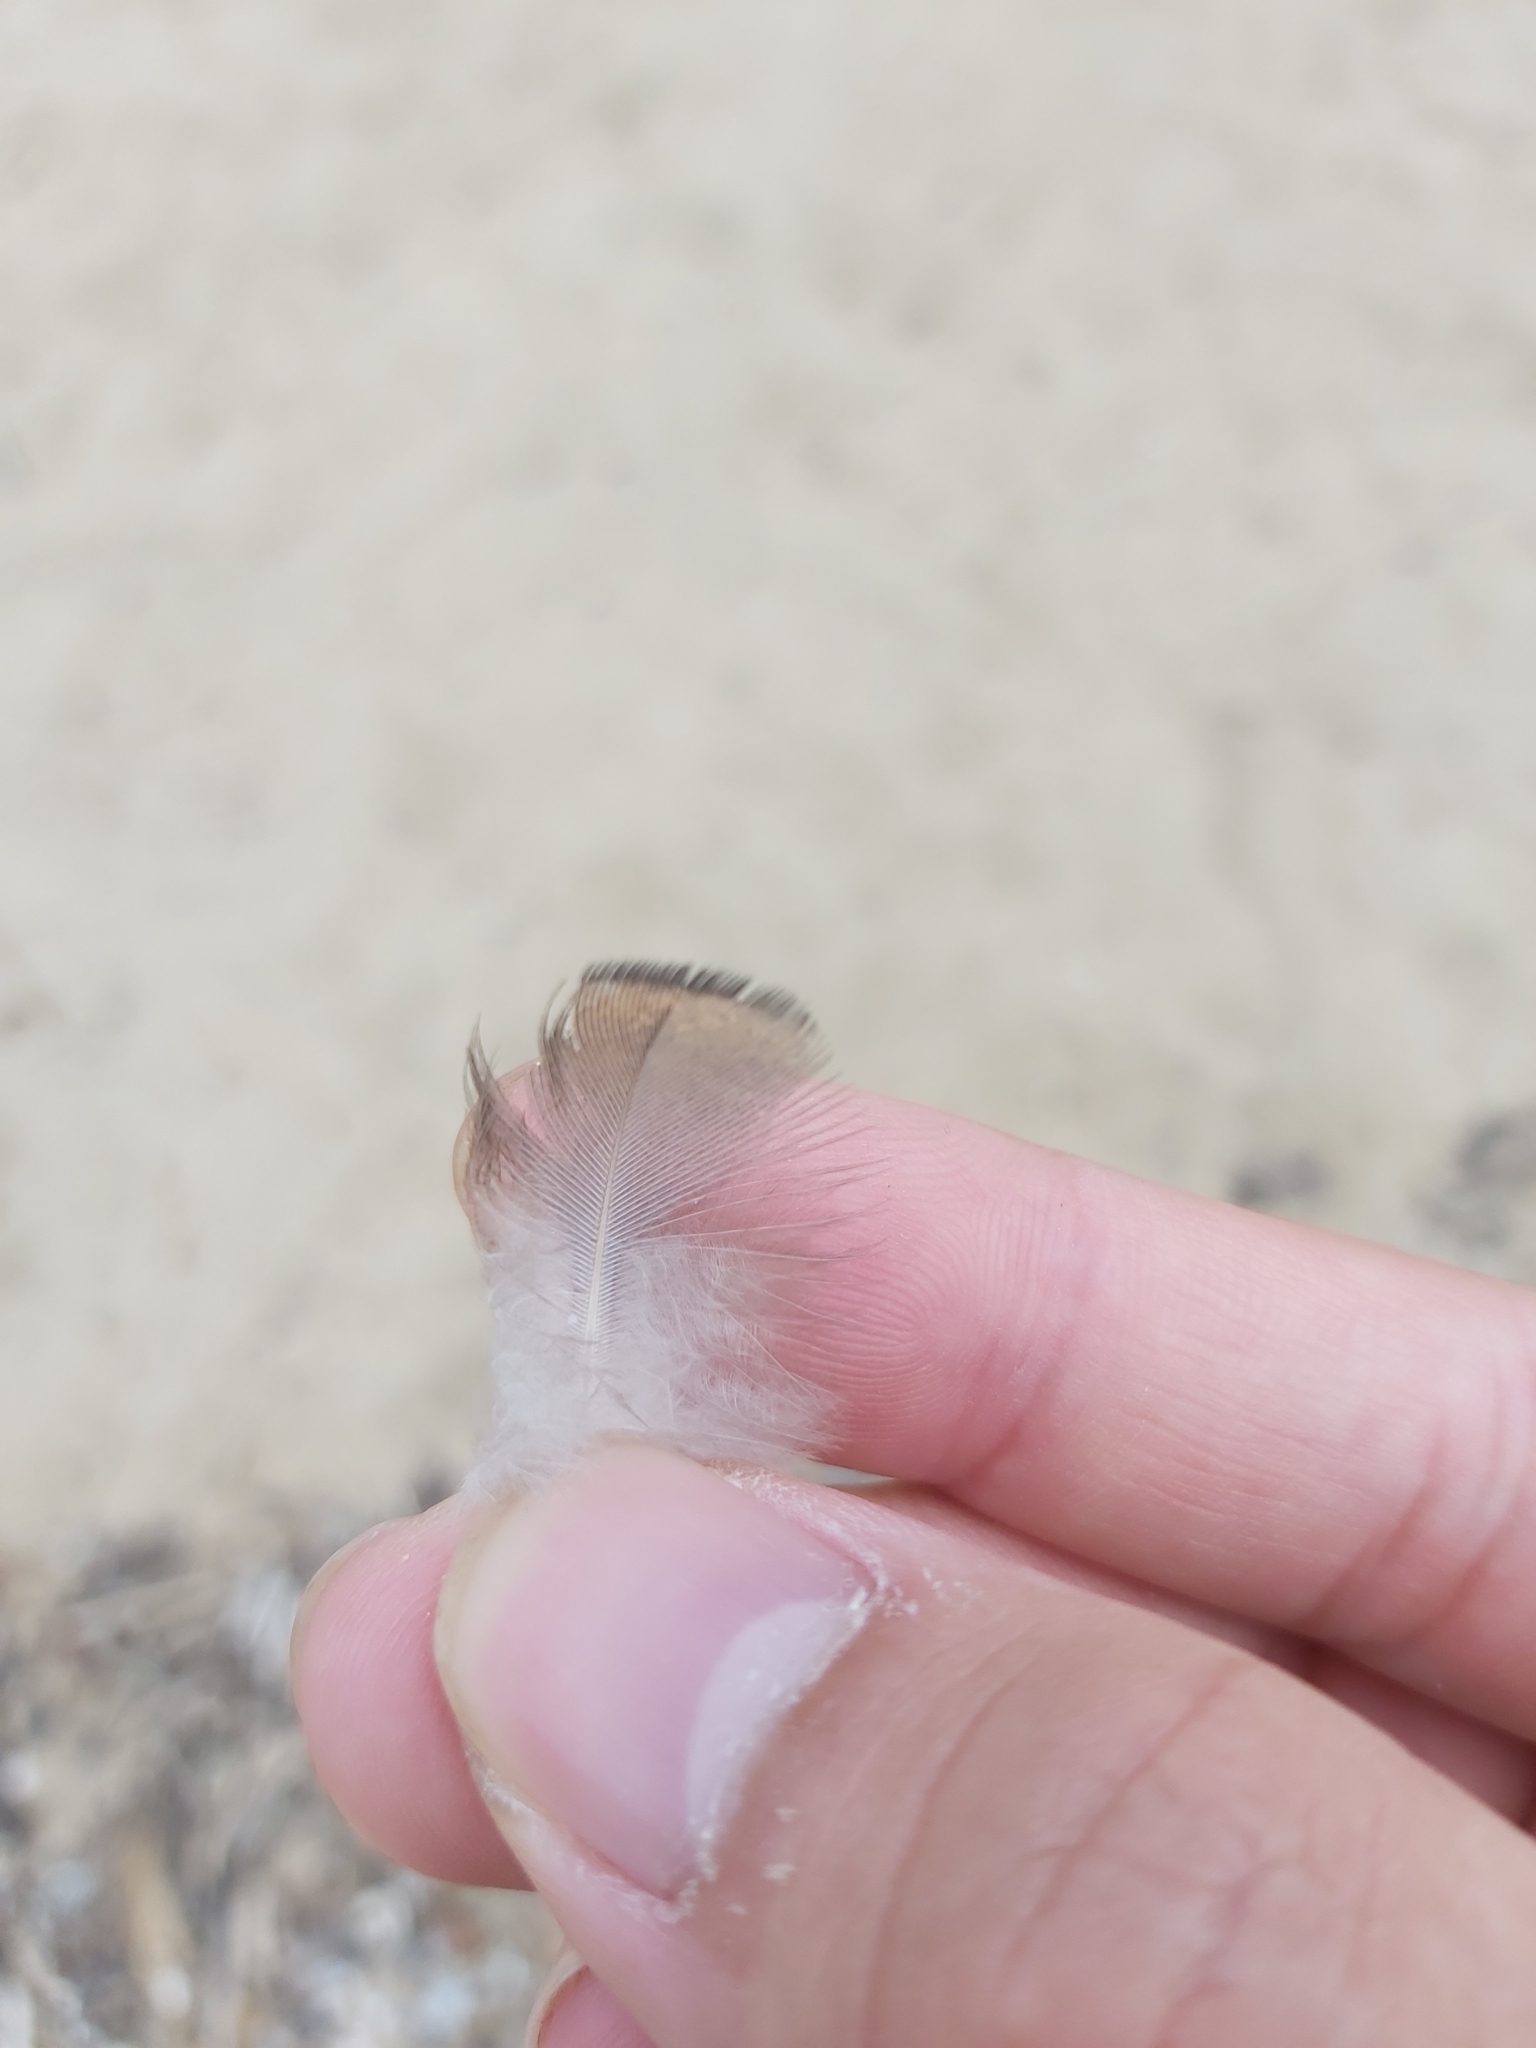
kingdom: Animalia
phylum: Chordata
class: Aves
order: Columbiformes
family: Columbidae
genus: Geopelia
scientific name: Geopelia humeralis
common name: Bar-shouldered dove
